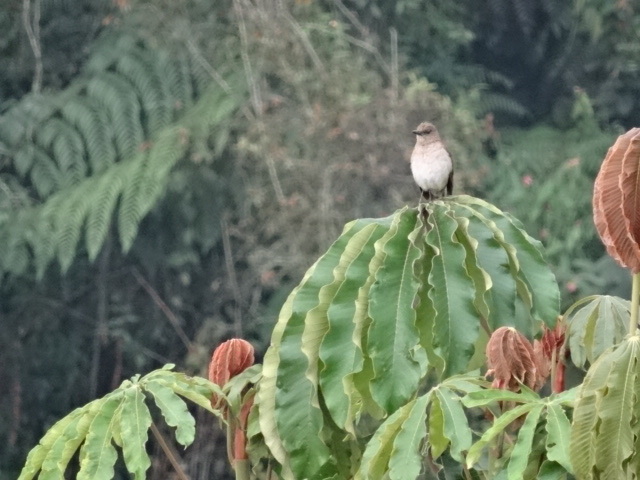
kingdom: Animalia
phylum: Chordata
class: Aves
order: Passeriformes
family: Turdidae
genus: Turdus
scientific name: Turdus ignobilis
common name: Black-billed thrush
